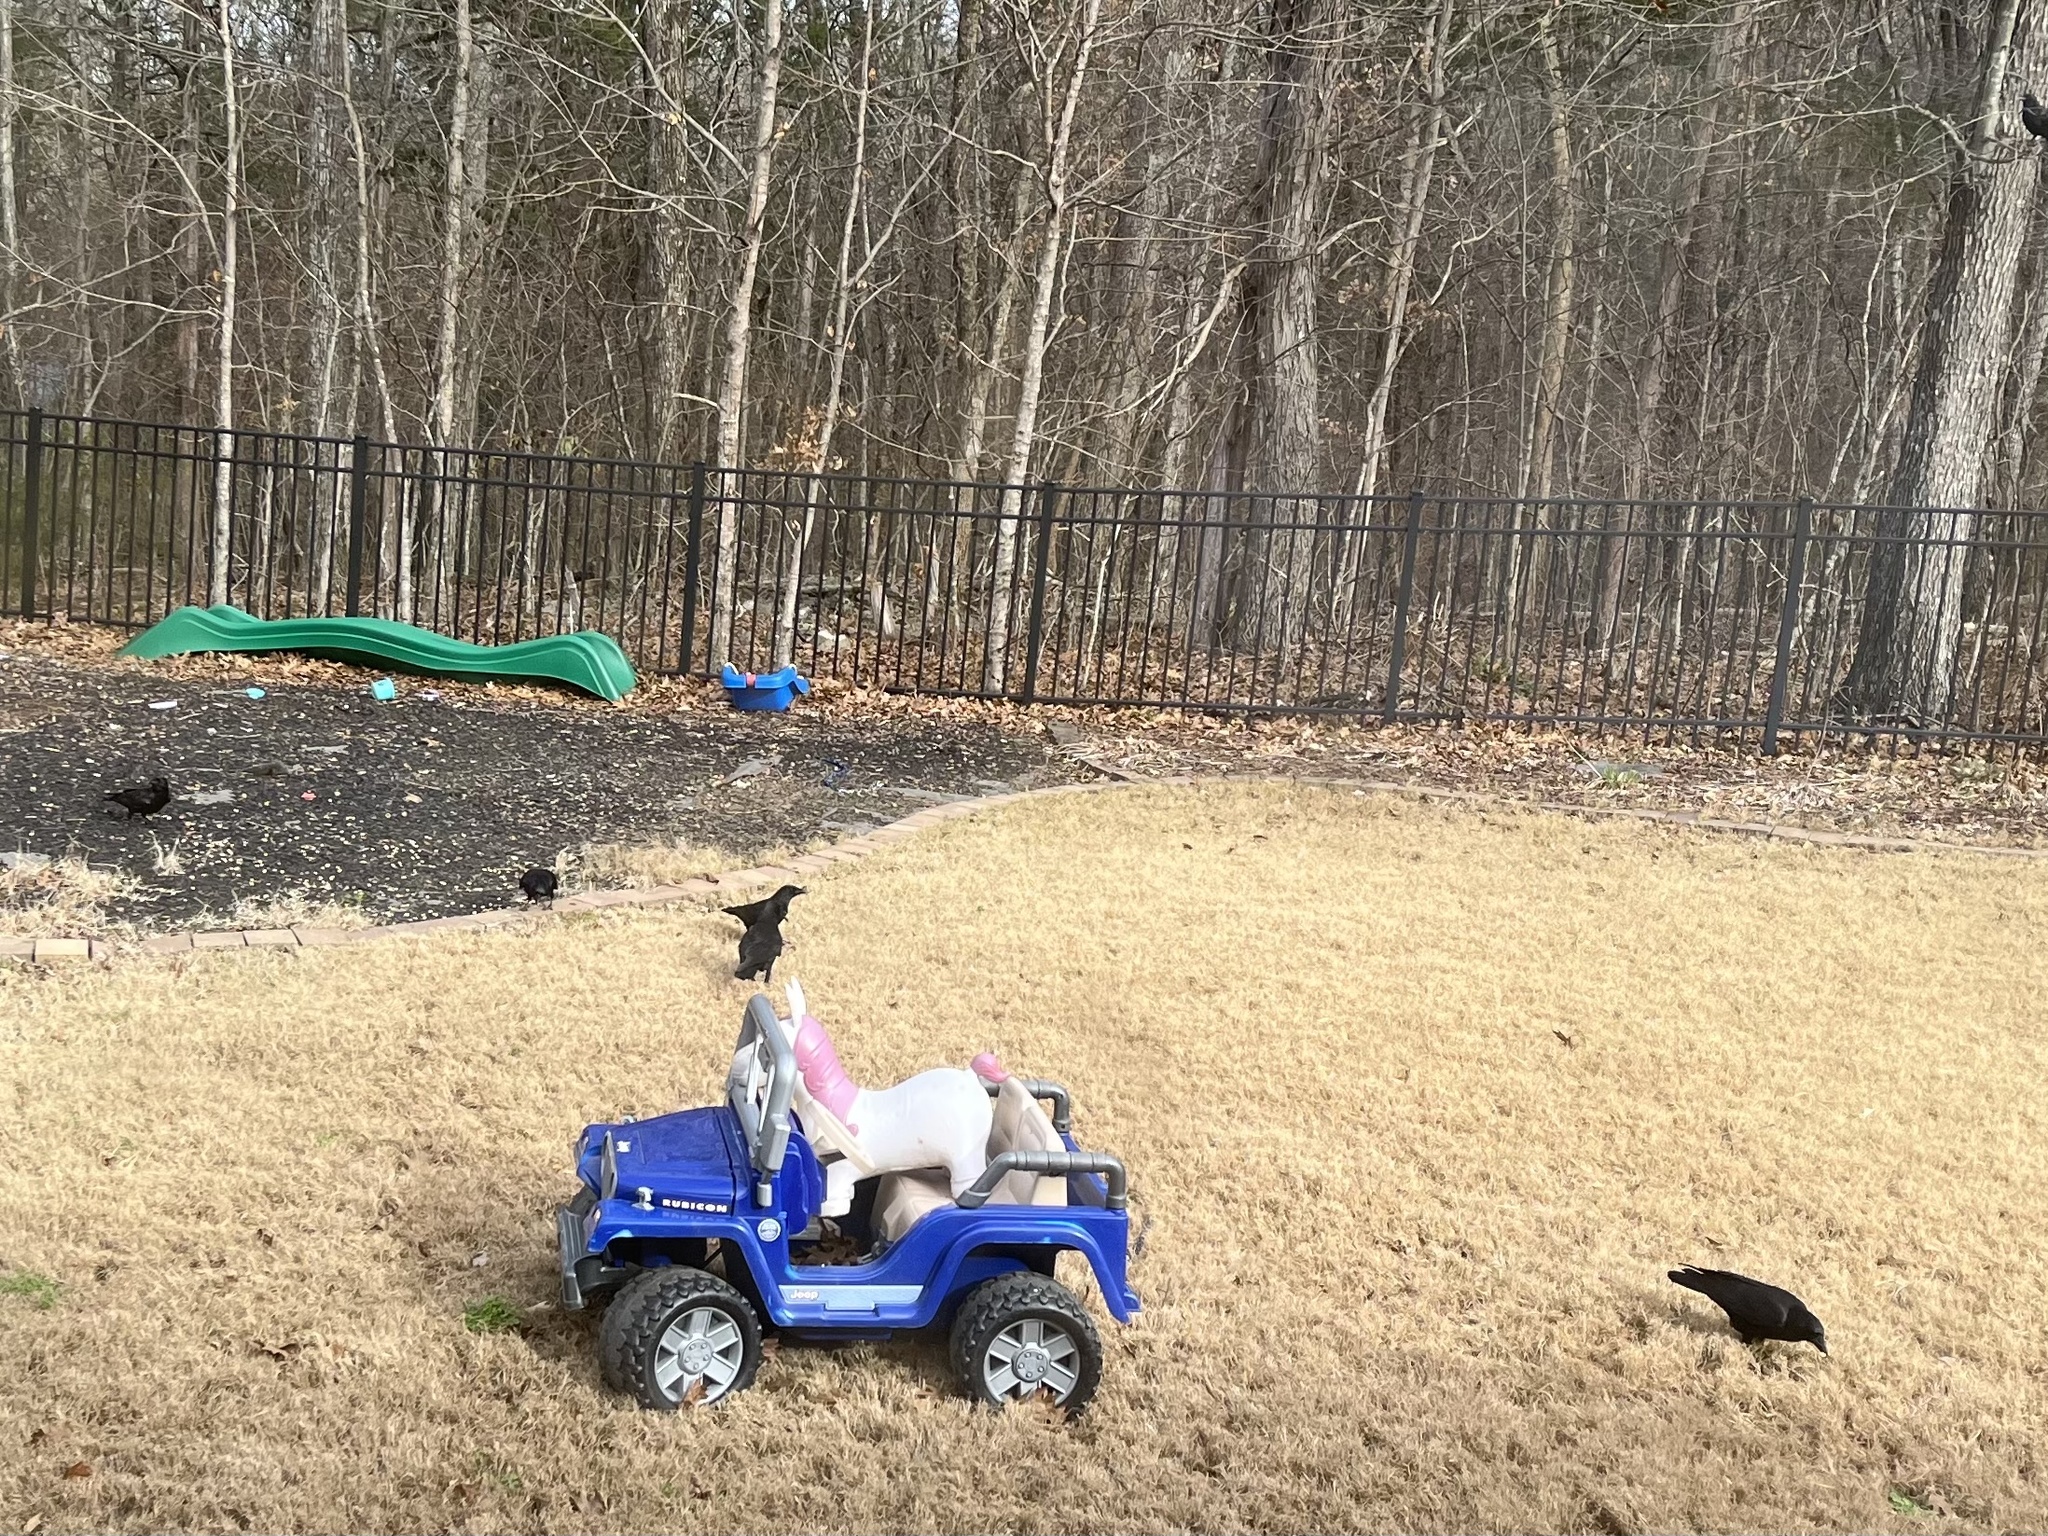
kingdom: Animalia
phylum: Chordata
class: Aves
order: Passeriformes
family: Corvidae
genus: Corvus
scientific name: Corvus brachyrhynchos
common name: American crow
